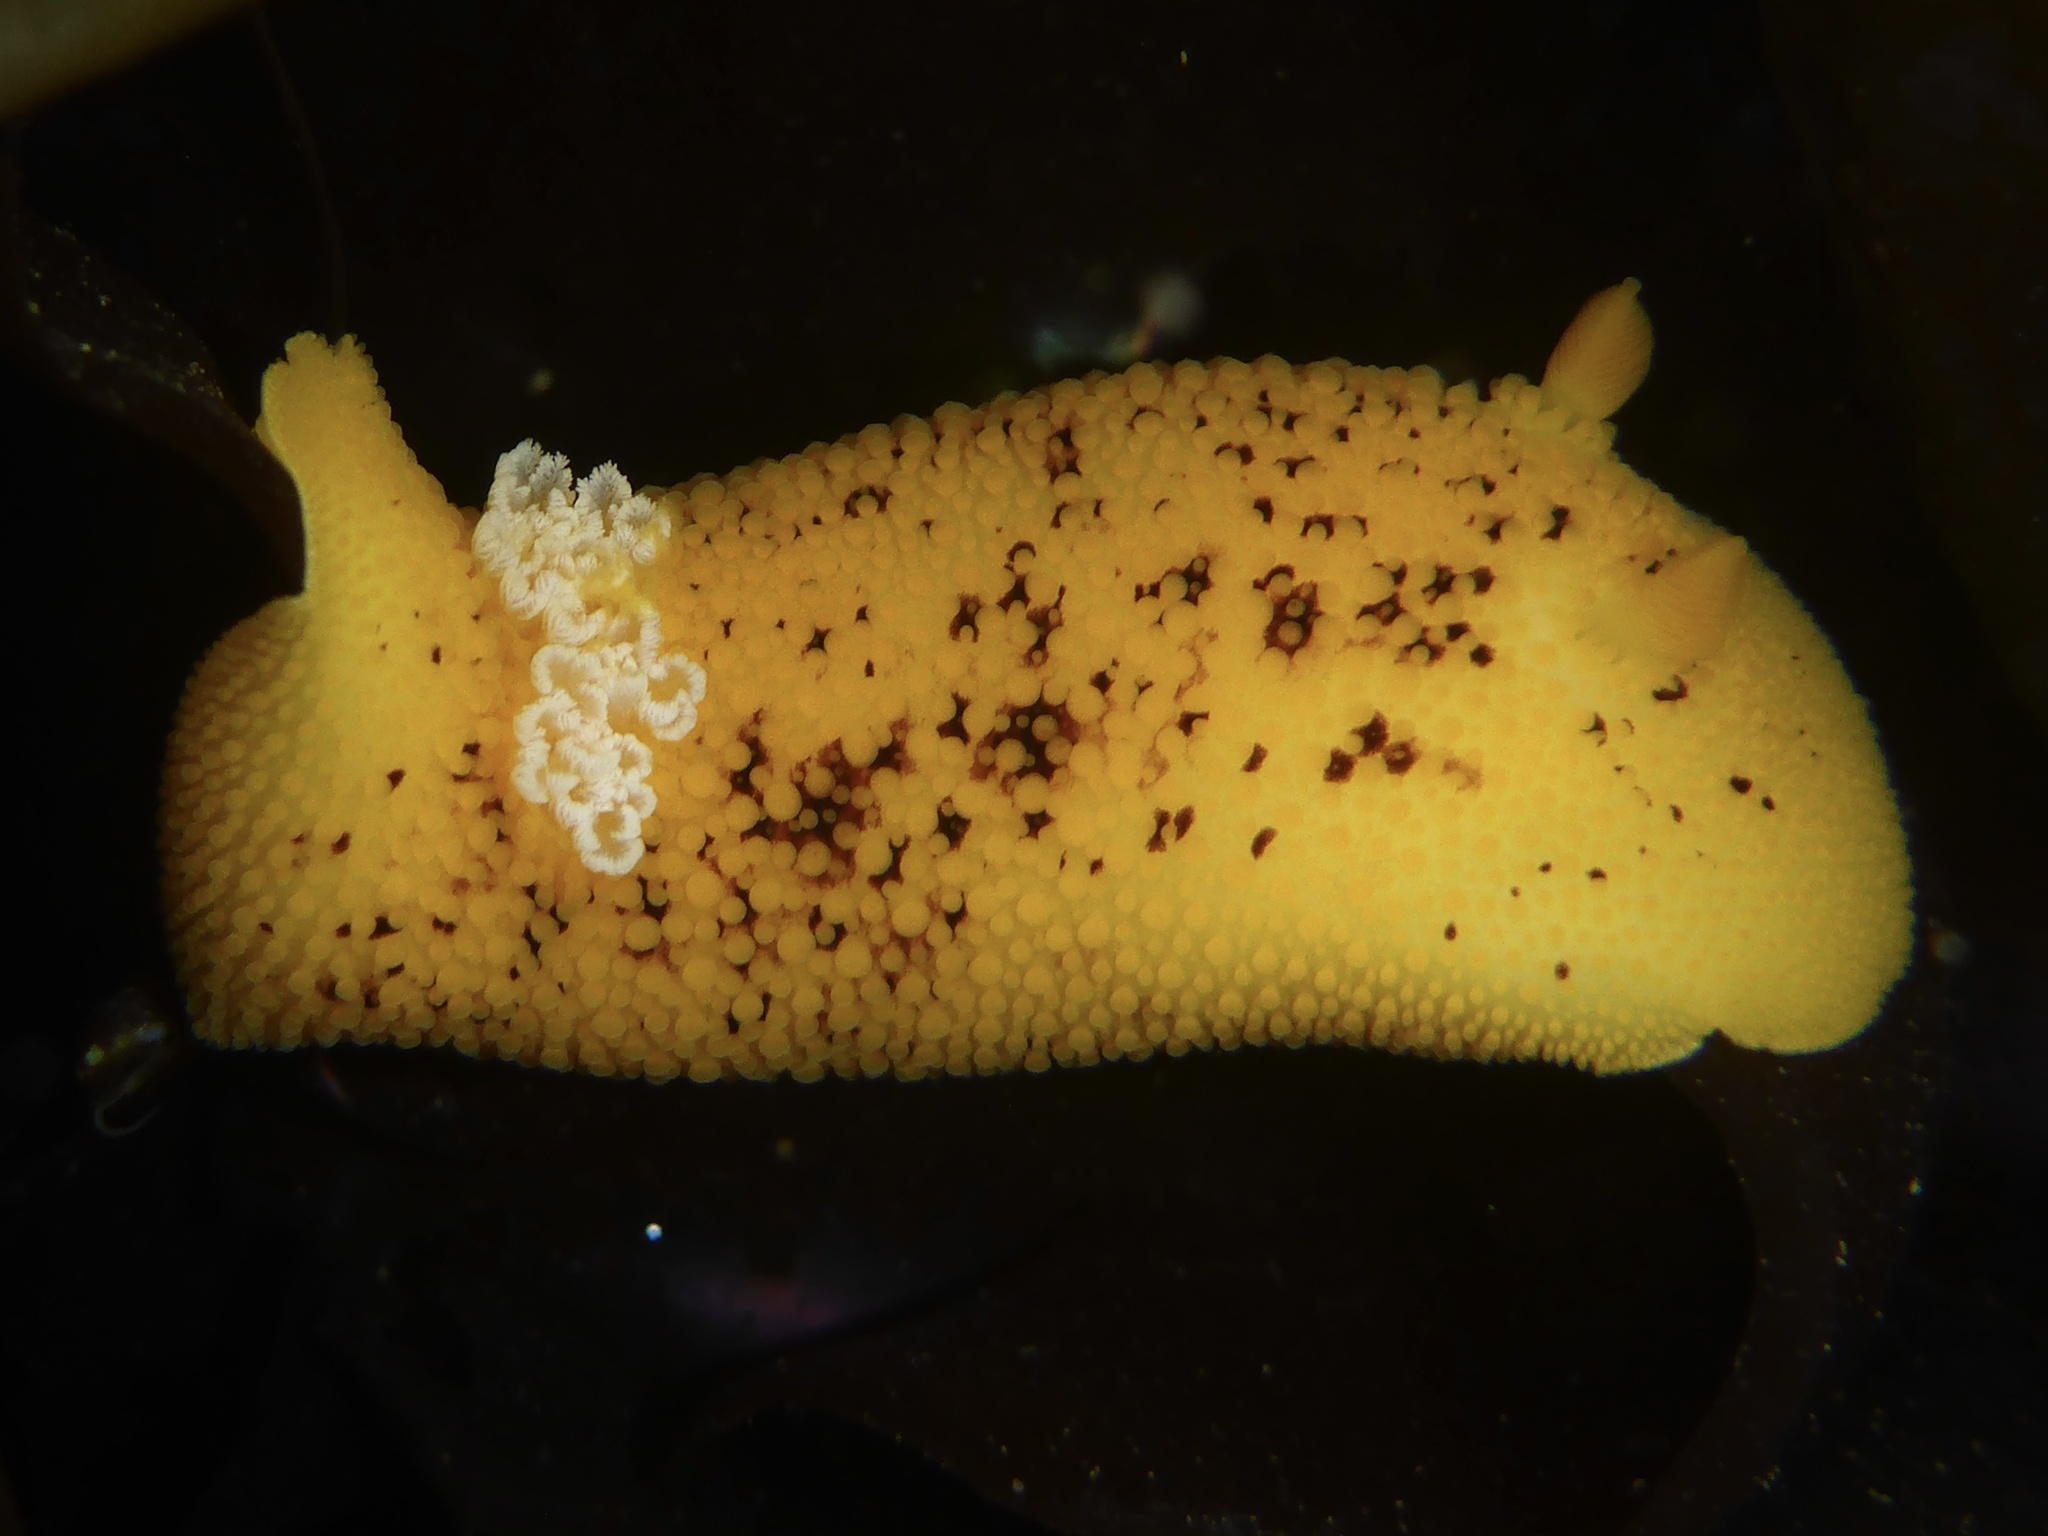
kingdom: Animalia
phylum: Mollusca
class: Gastropoda
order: Nudibranchia
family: Discodorididae
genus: Peltodoris
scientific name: Peltodoris nobilis
